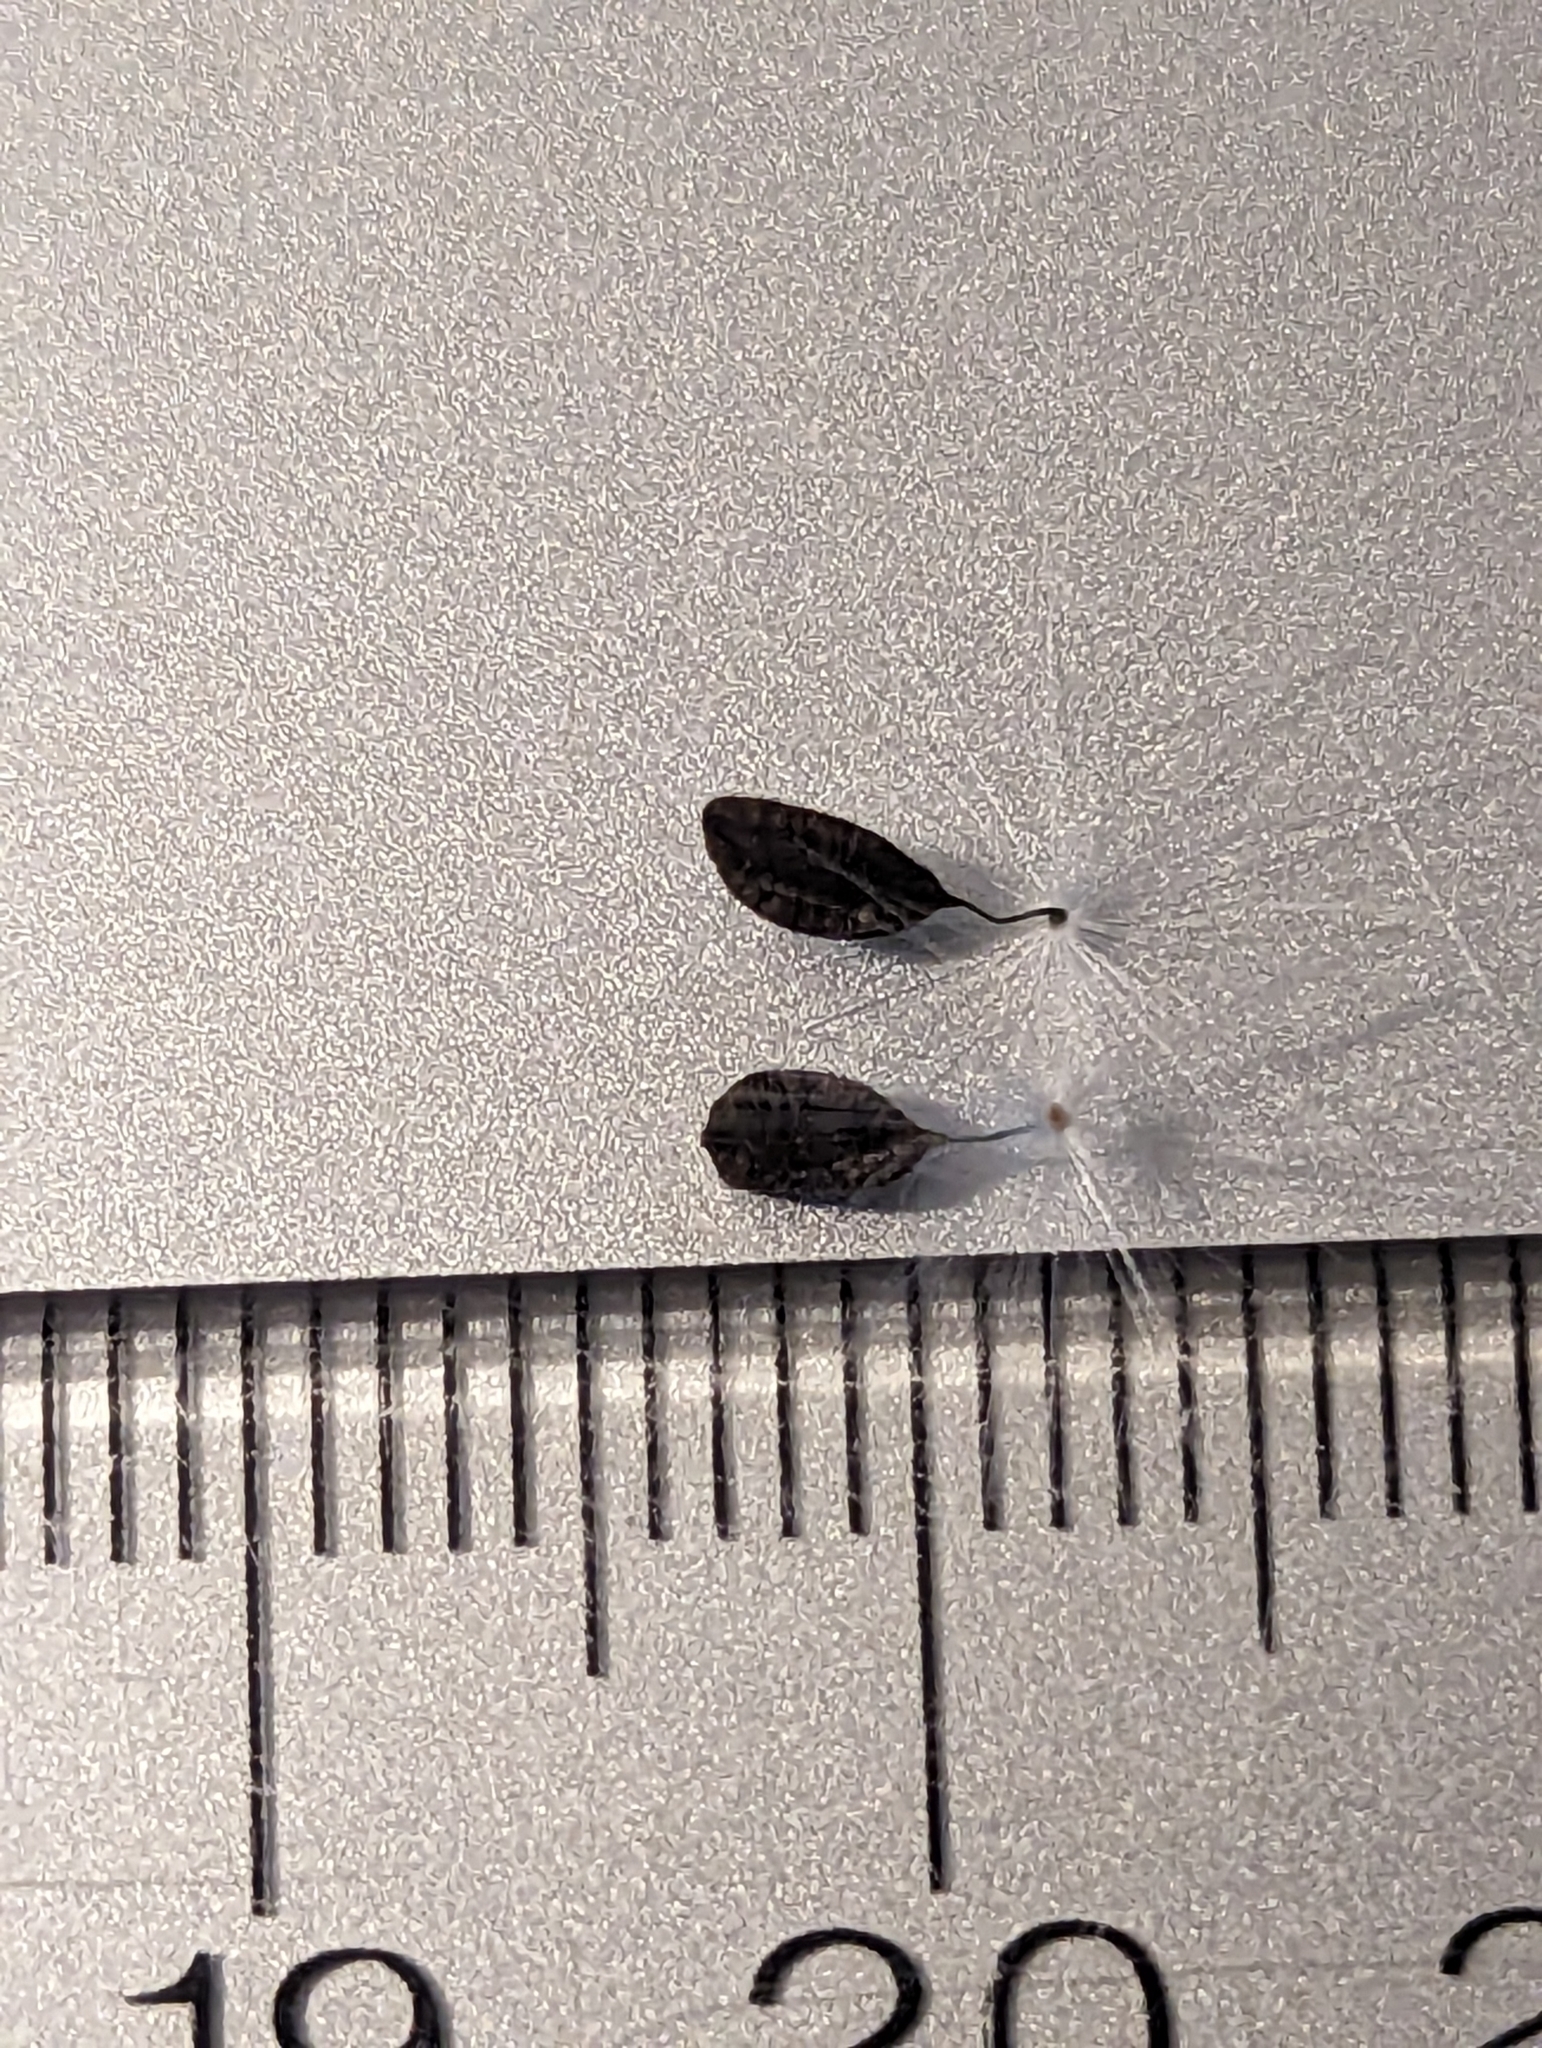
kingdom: Plantae
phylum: Tracheophyta
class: Magnoliopsida
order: Asterales
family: Asteraceae
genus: Lactuca
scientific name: Lactuca canadensis
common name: Canada lettuce
